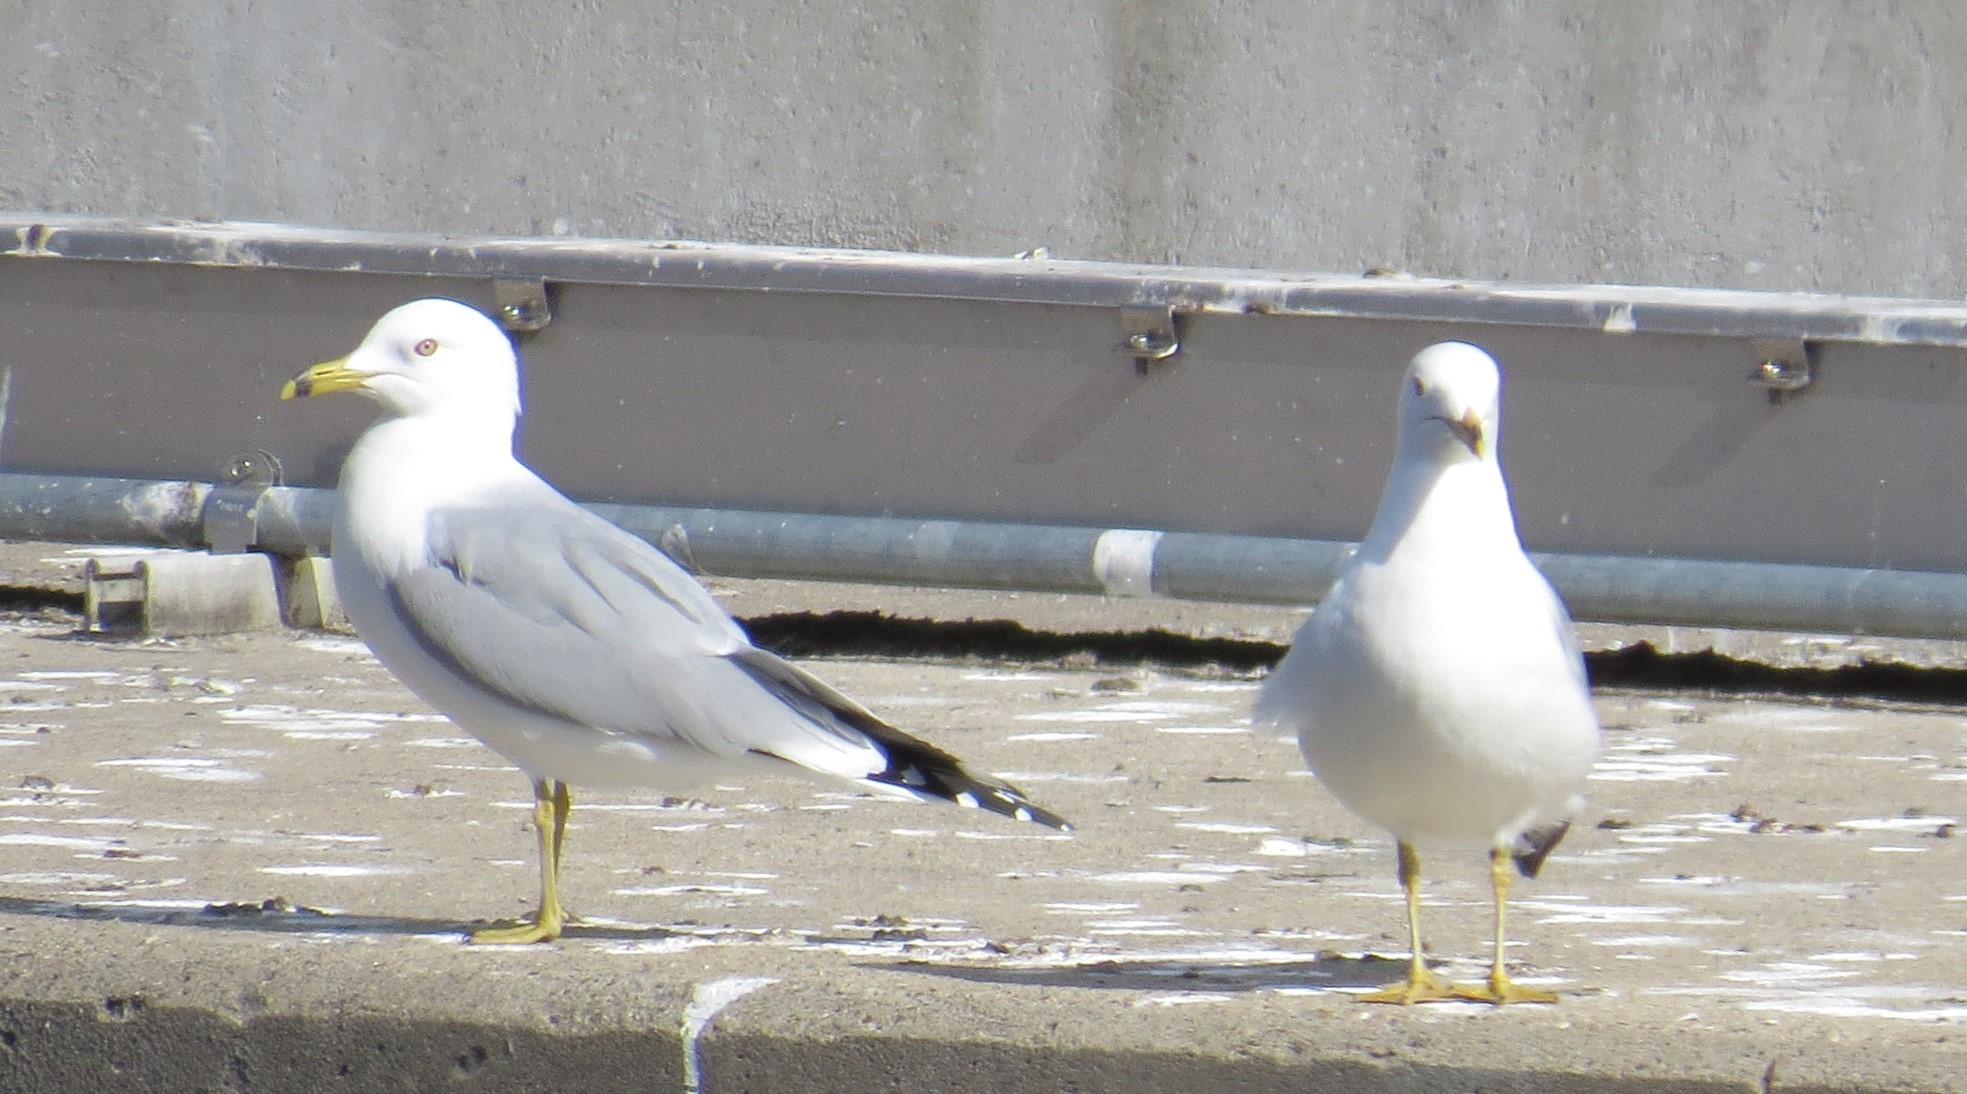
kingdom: Animalia
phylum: Chordata
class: Aves
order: Charadriiformes
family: Laridae
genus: Larus
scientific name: Larus delawarensis
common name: Ring-billed gull
